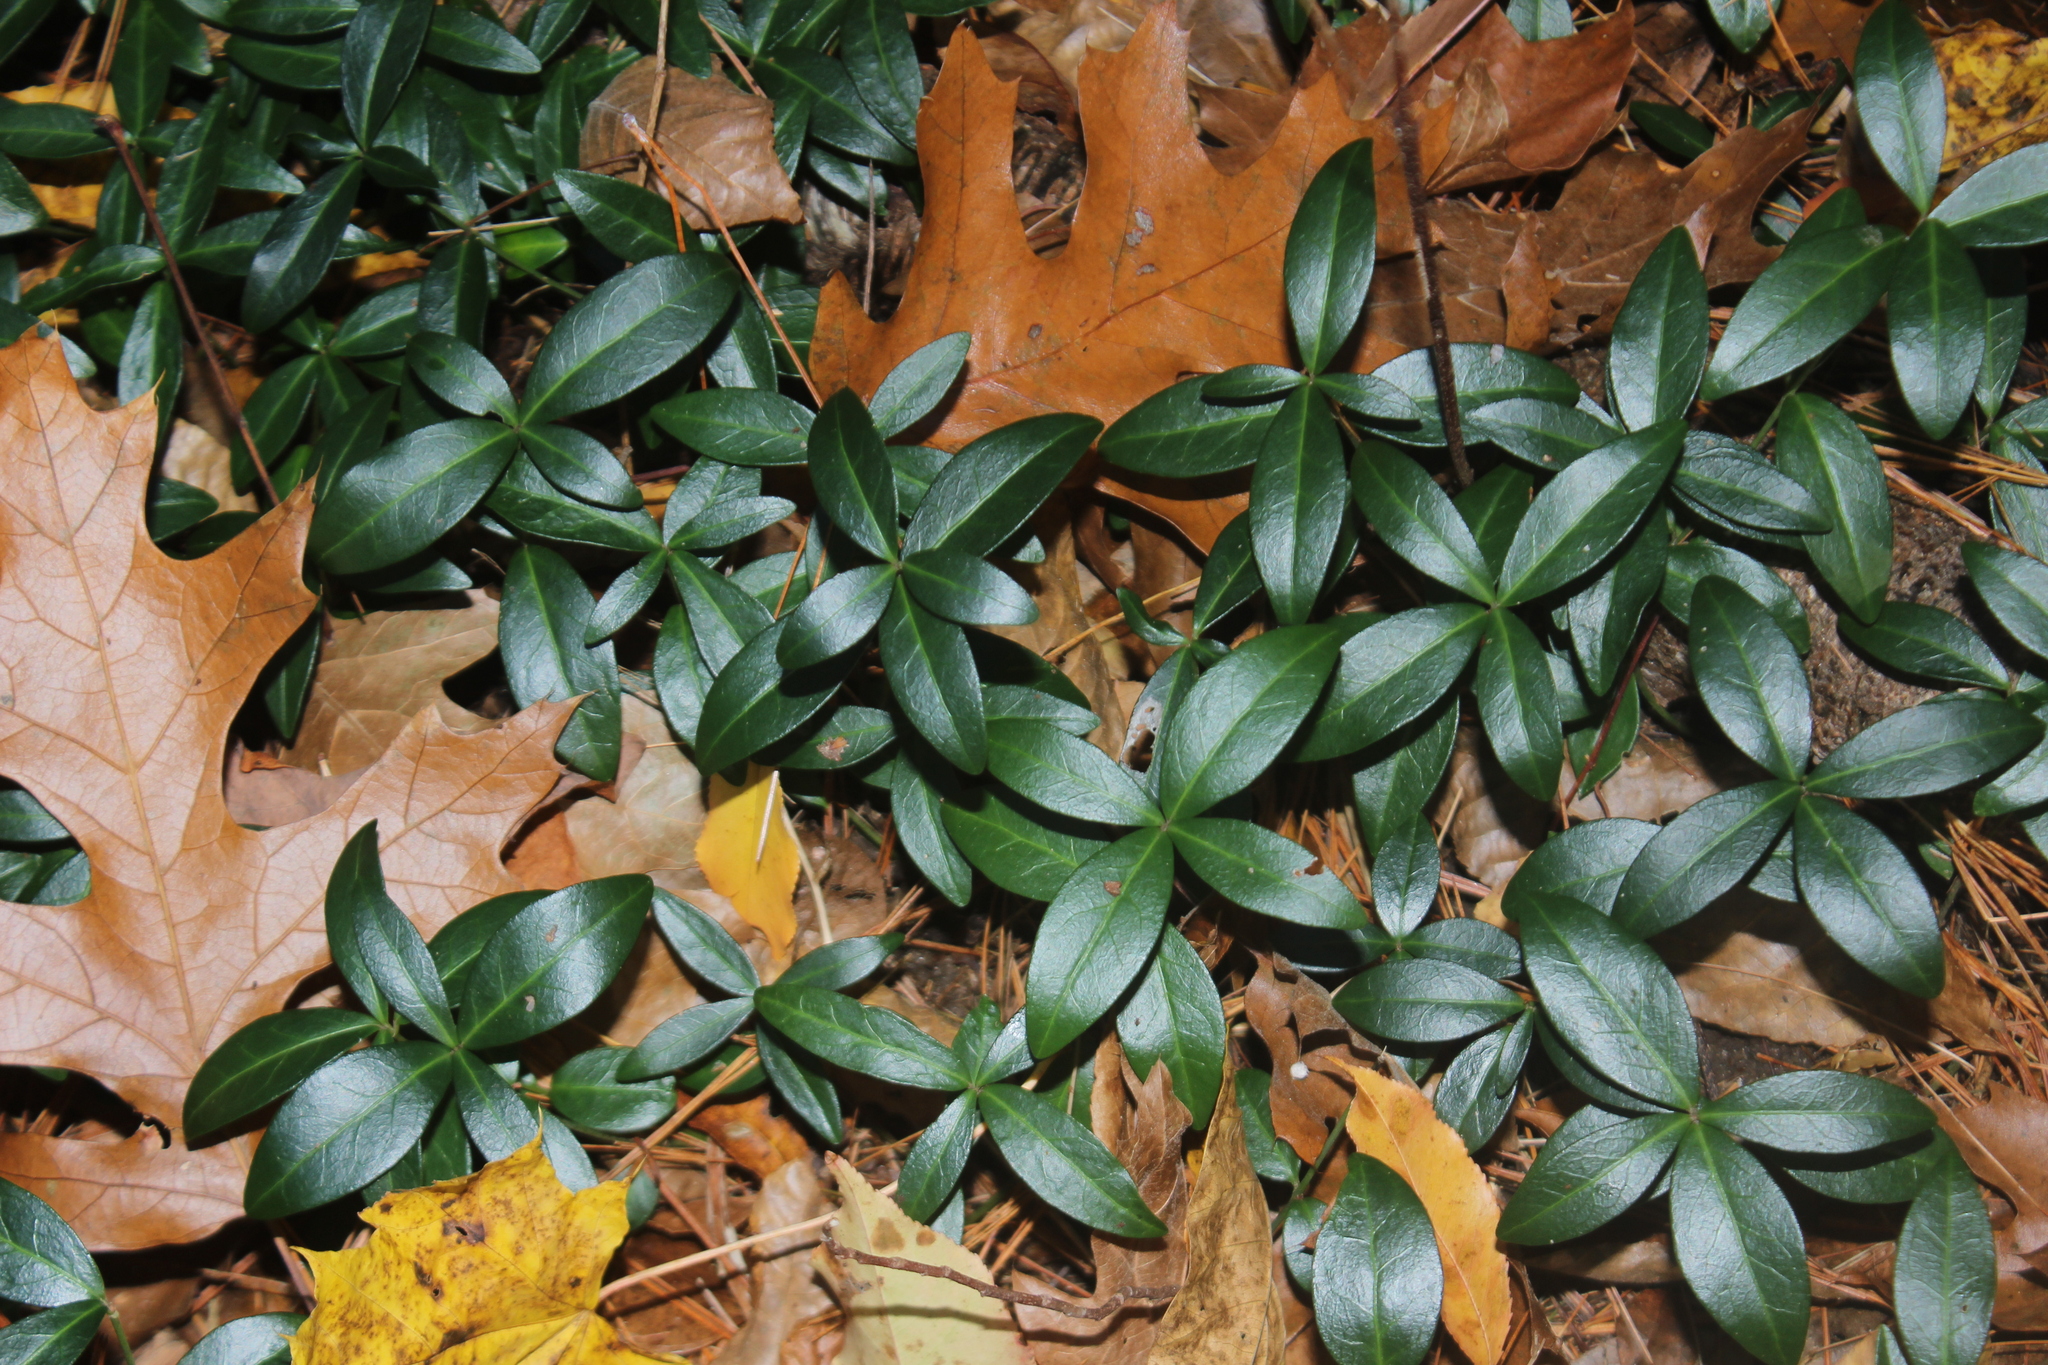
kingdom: Plantae
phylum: Tracheophyta
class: Magnoliopsida
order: Gentianales
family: Apocynaceae
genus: Vinca
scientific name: Vinca minor
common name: Lesser periwinkle
